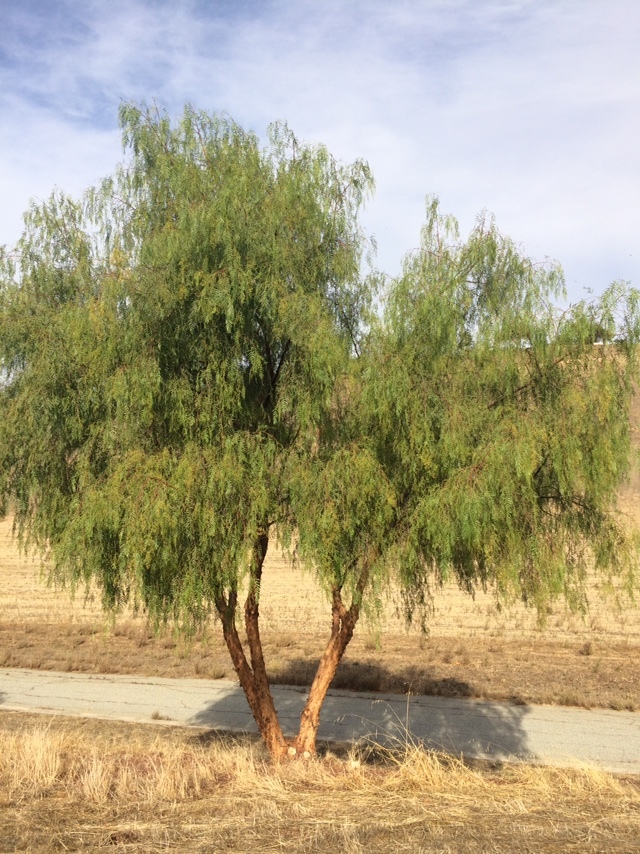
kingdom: Plantae
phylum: Tracheophyta
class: Magnoliopsida
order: Sapindales
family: Anacardiaceae
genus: Schinus
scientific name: Schinus molle
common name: Peruvian peppertree
